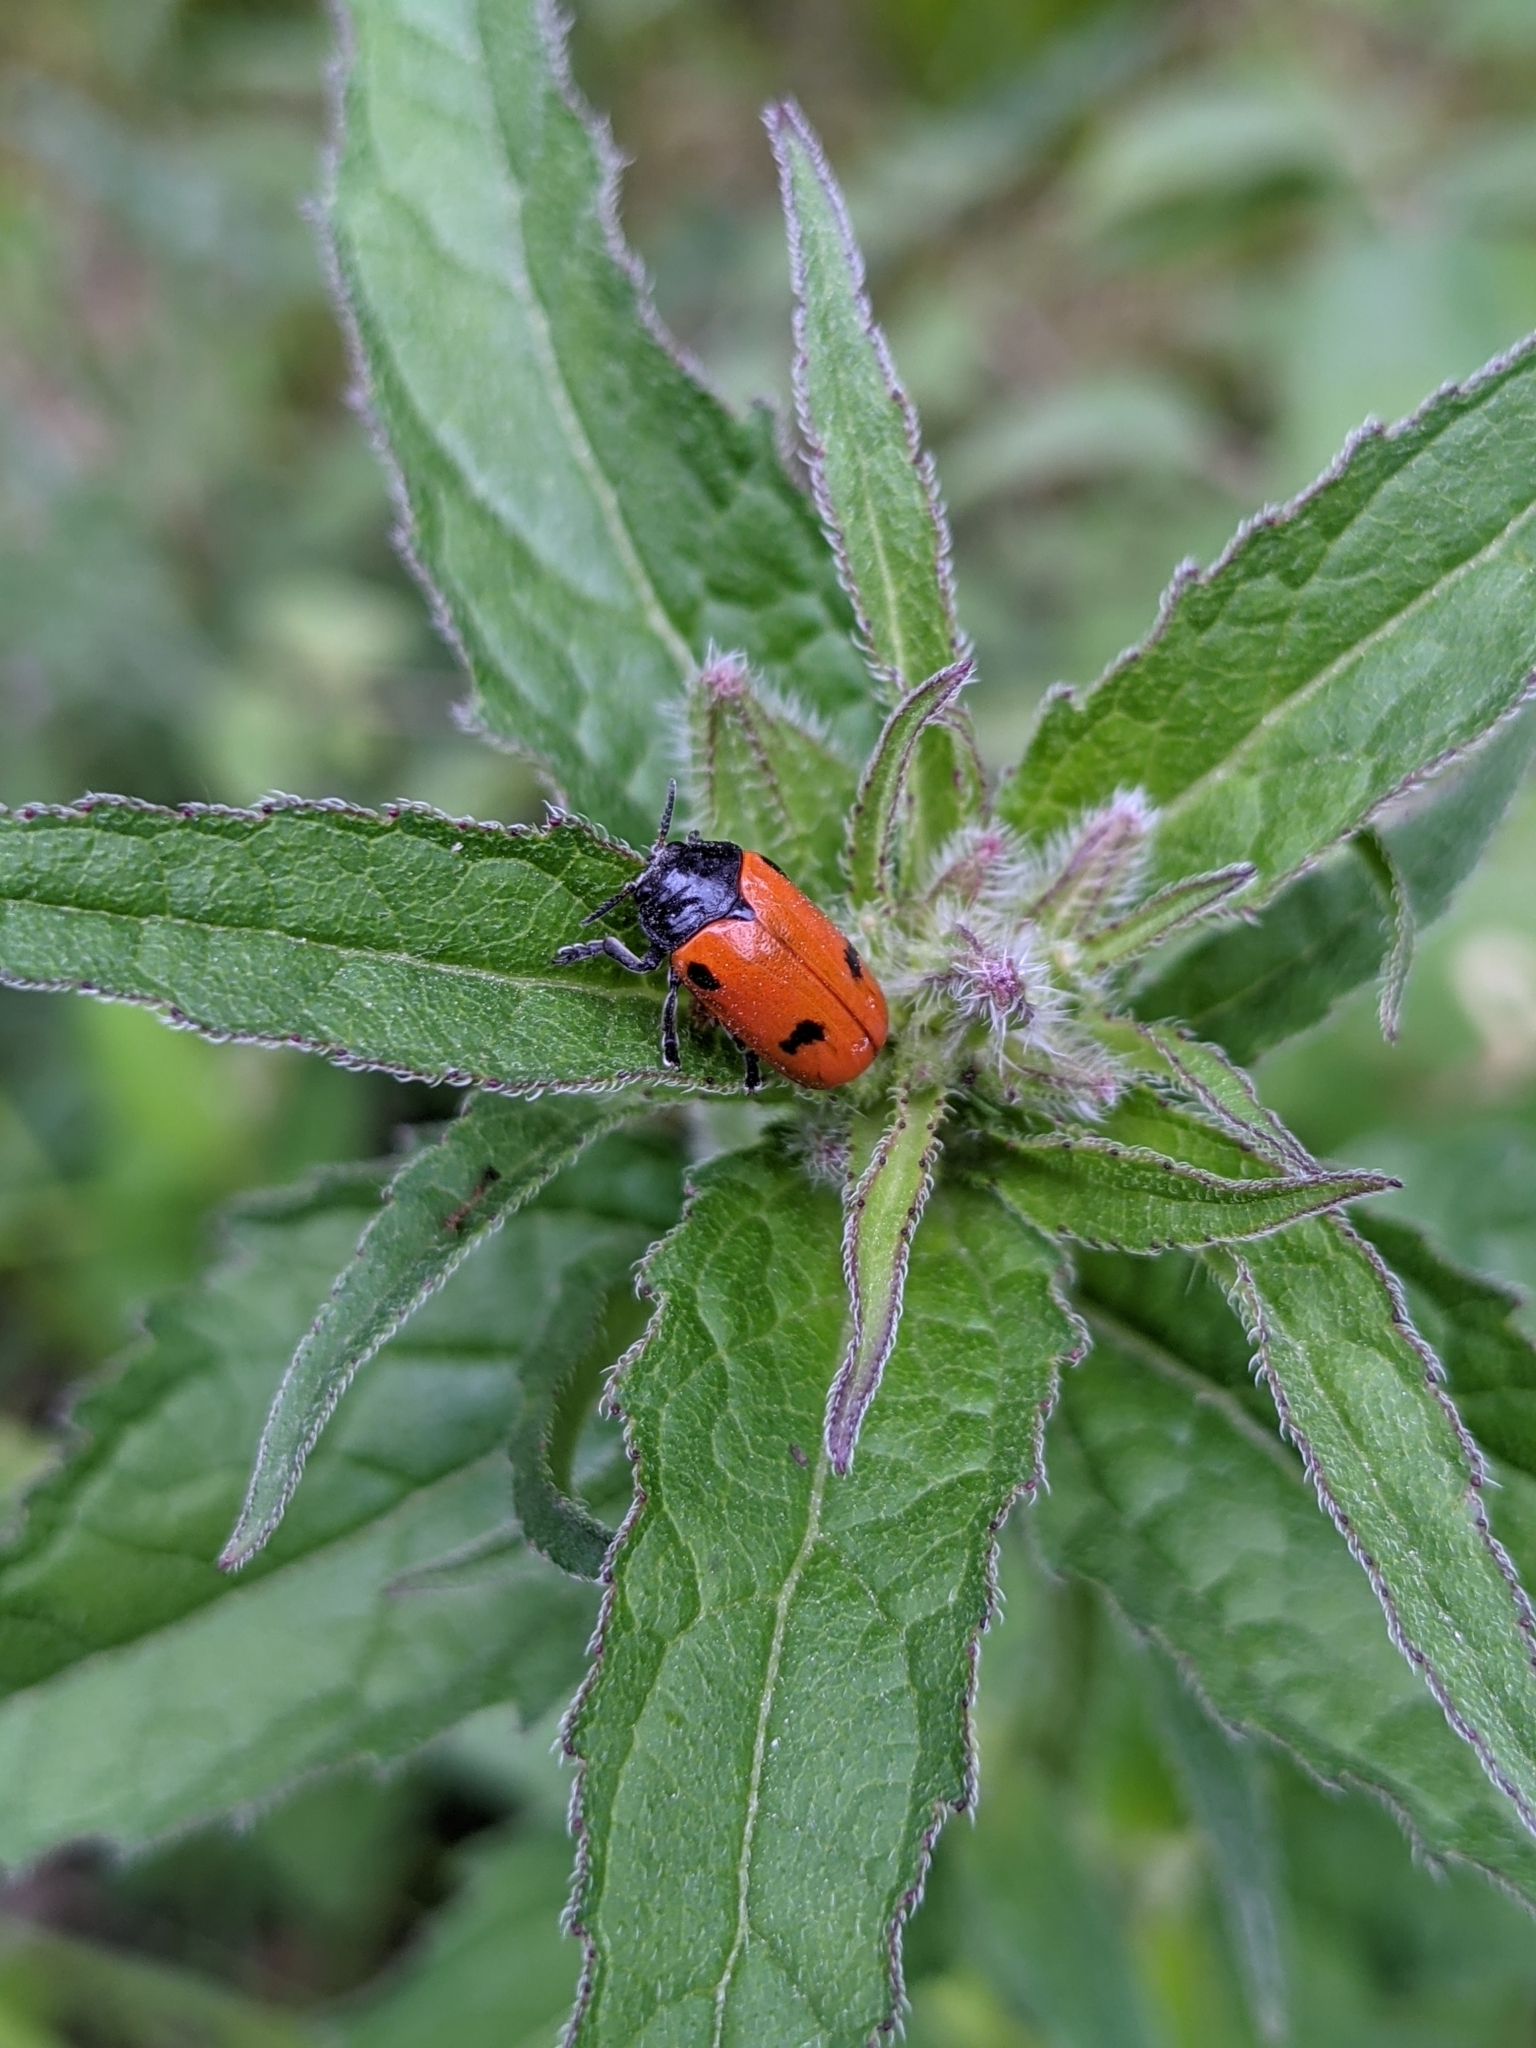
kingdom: Animalia
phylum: Arthropoda
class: Insecta
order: Coleoptera
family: Chrysomelidae
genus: Clytra
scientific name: Clytra quadripunctata
